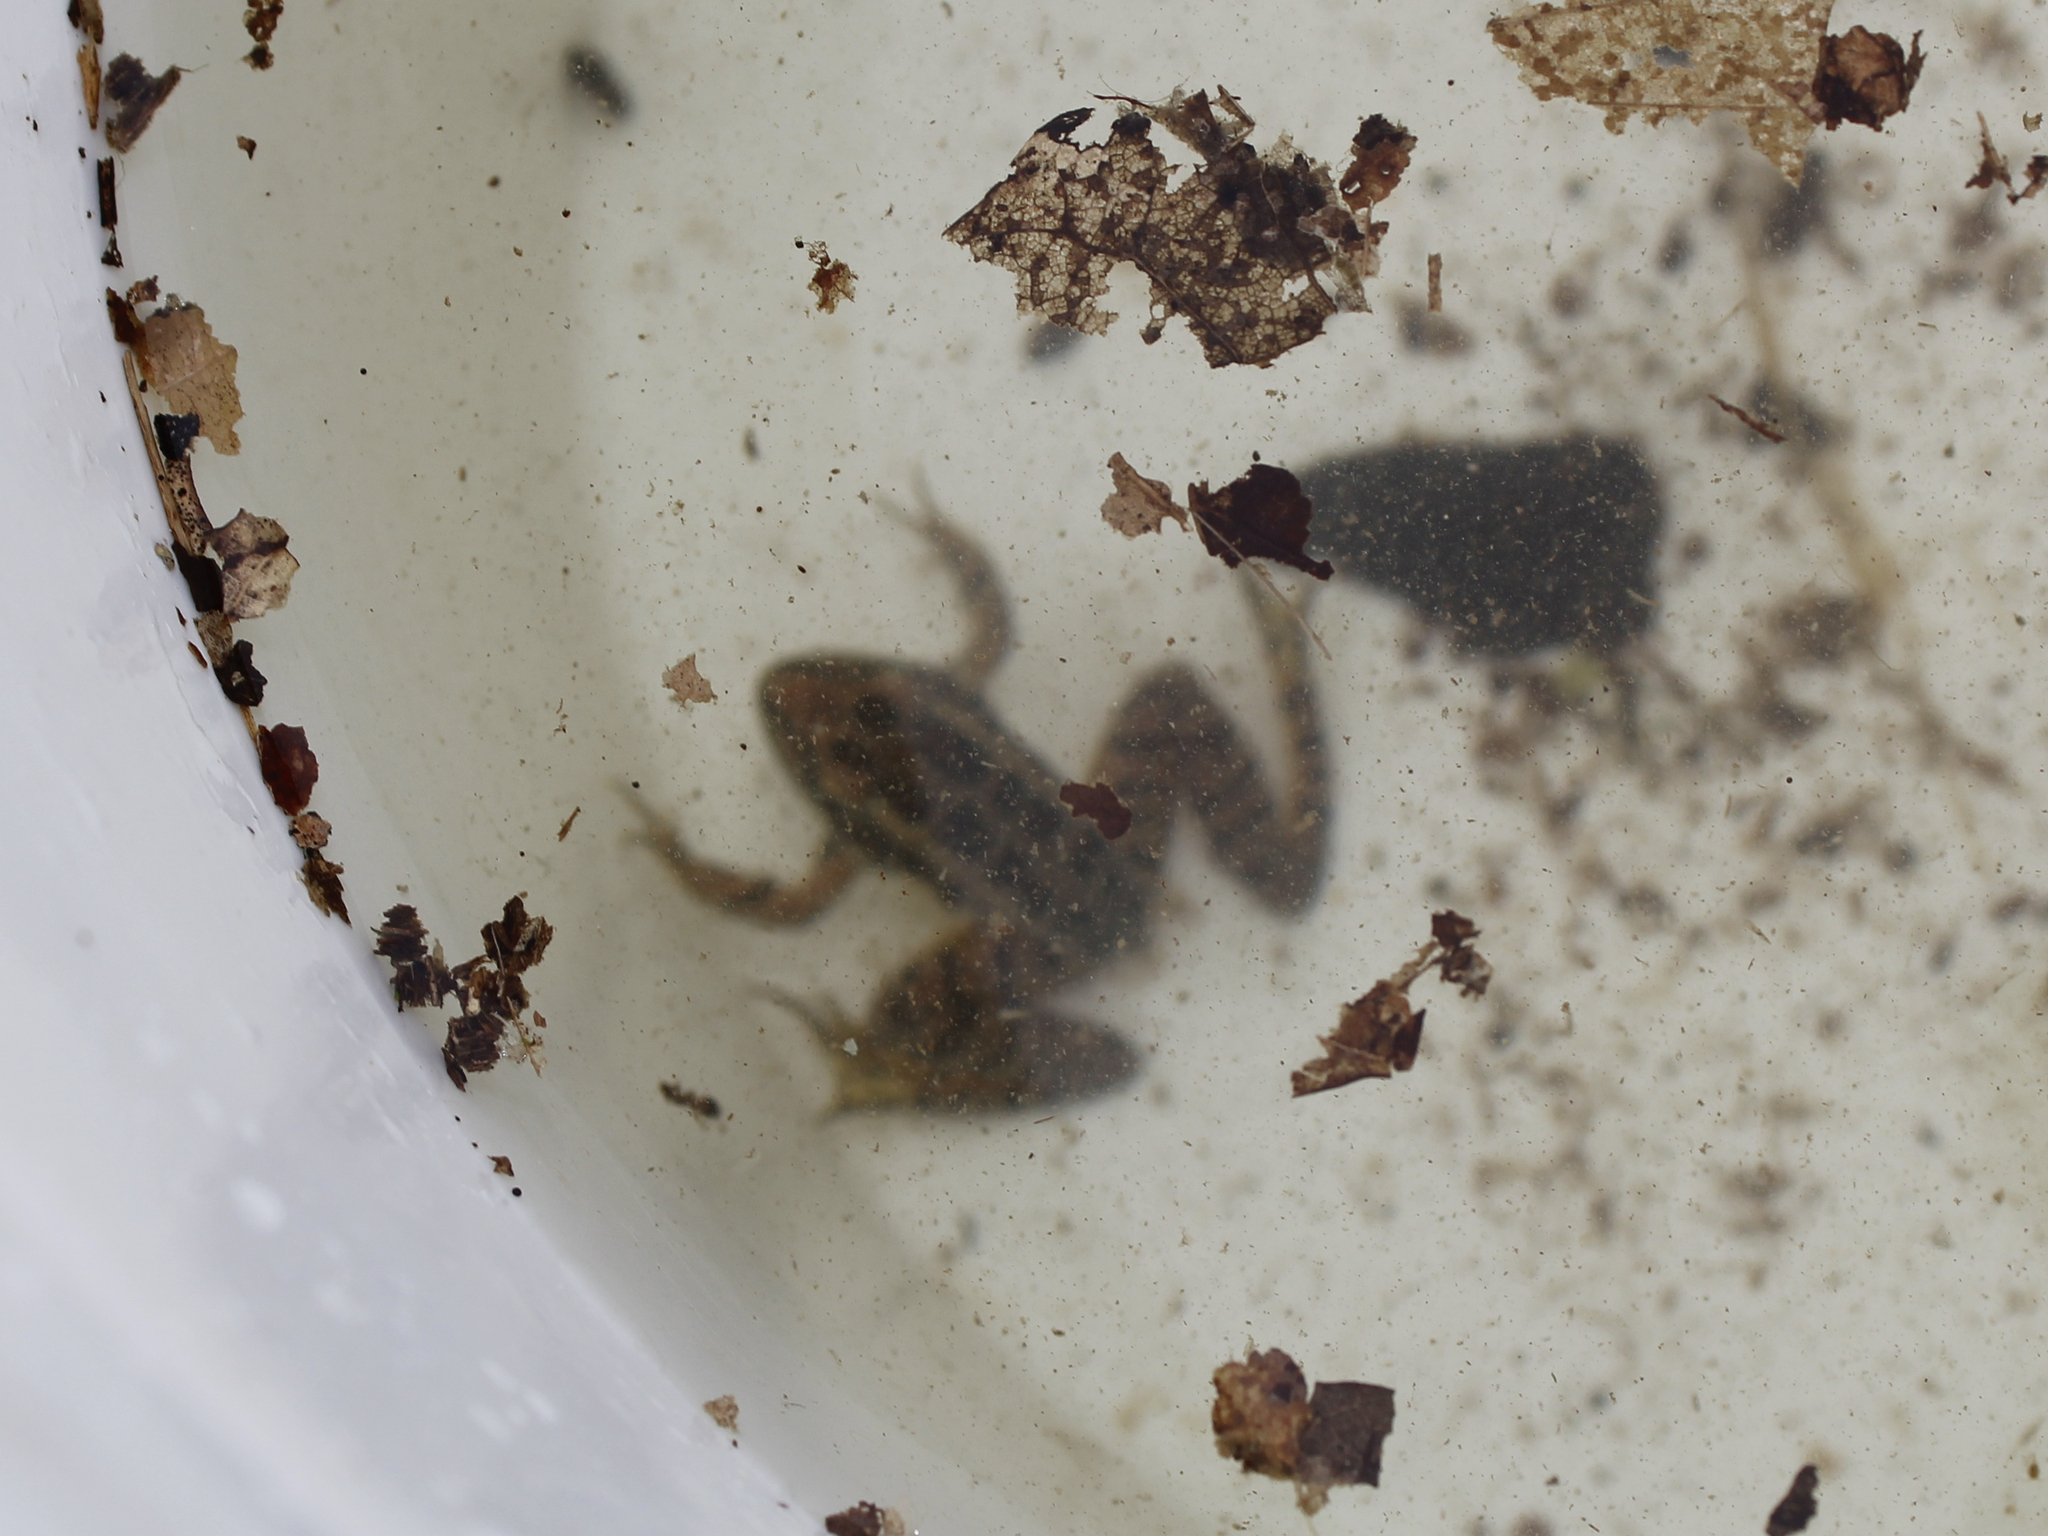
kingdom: Animalia
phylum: Chordata
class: Amphibia
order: Anura
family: Ranidae
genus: Lithobates
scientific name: Lithobates palustris
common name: Pickerel frog
